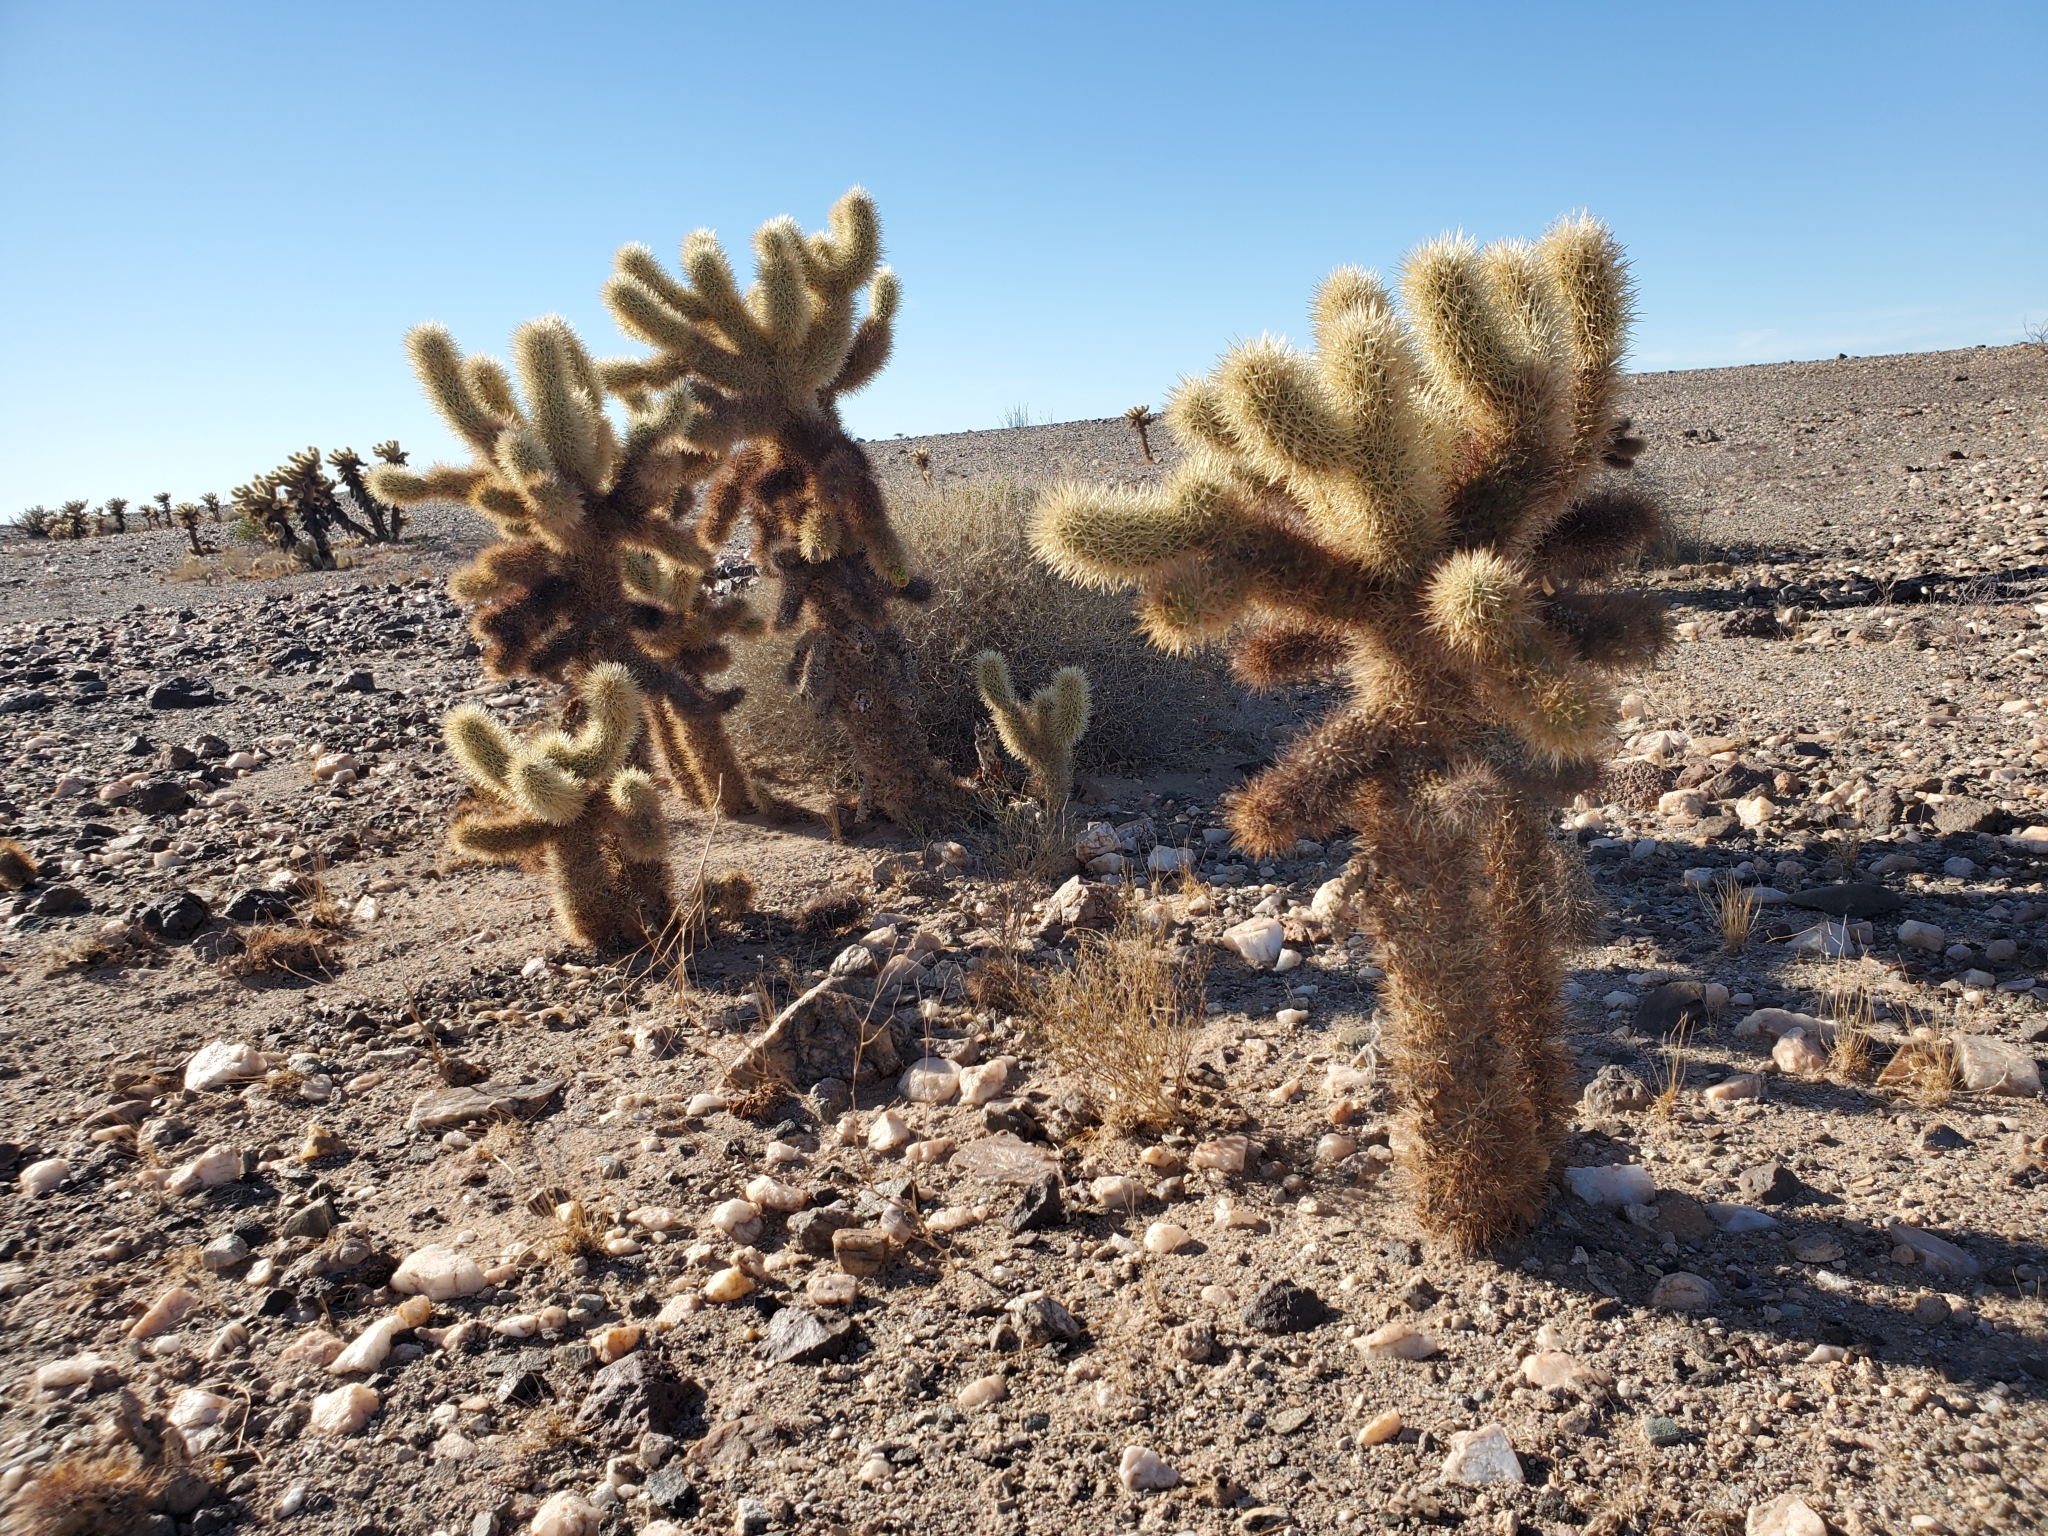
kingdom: Plantae
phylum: Tracheophyta
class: Magnoliopsida
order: Caryophyllales
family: Cactaceae
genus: Cylindropuntia
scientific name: Cylindropuntia fosbergii
